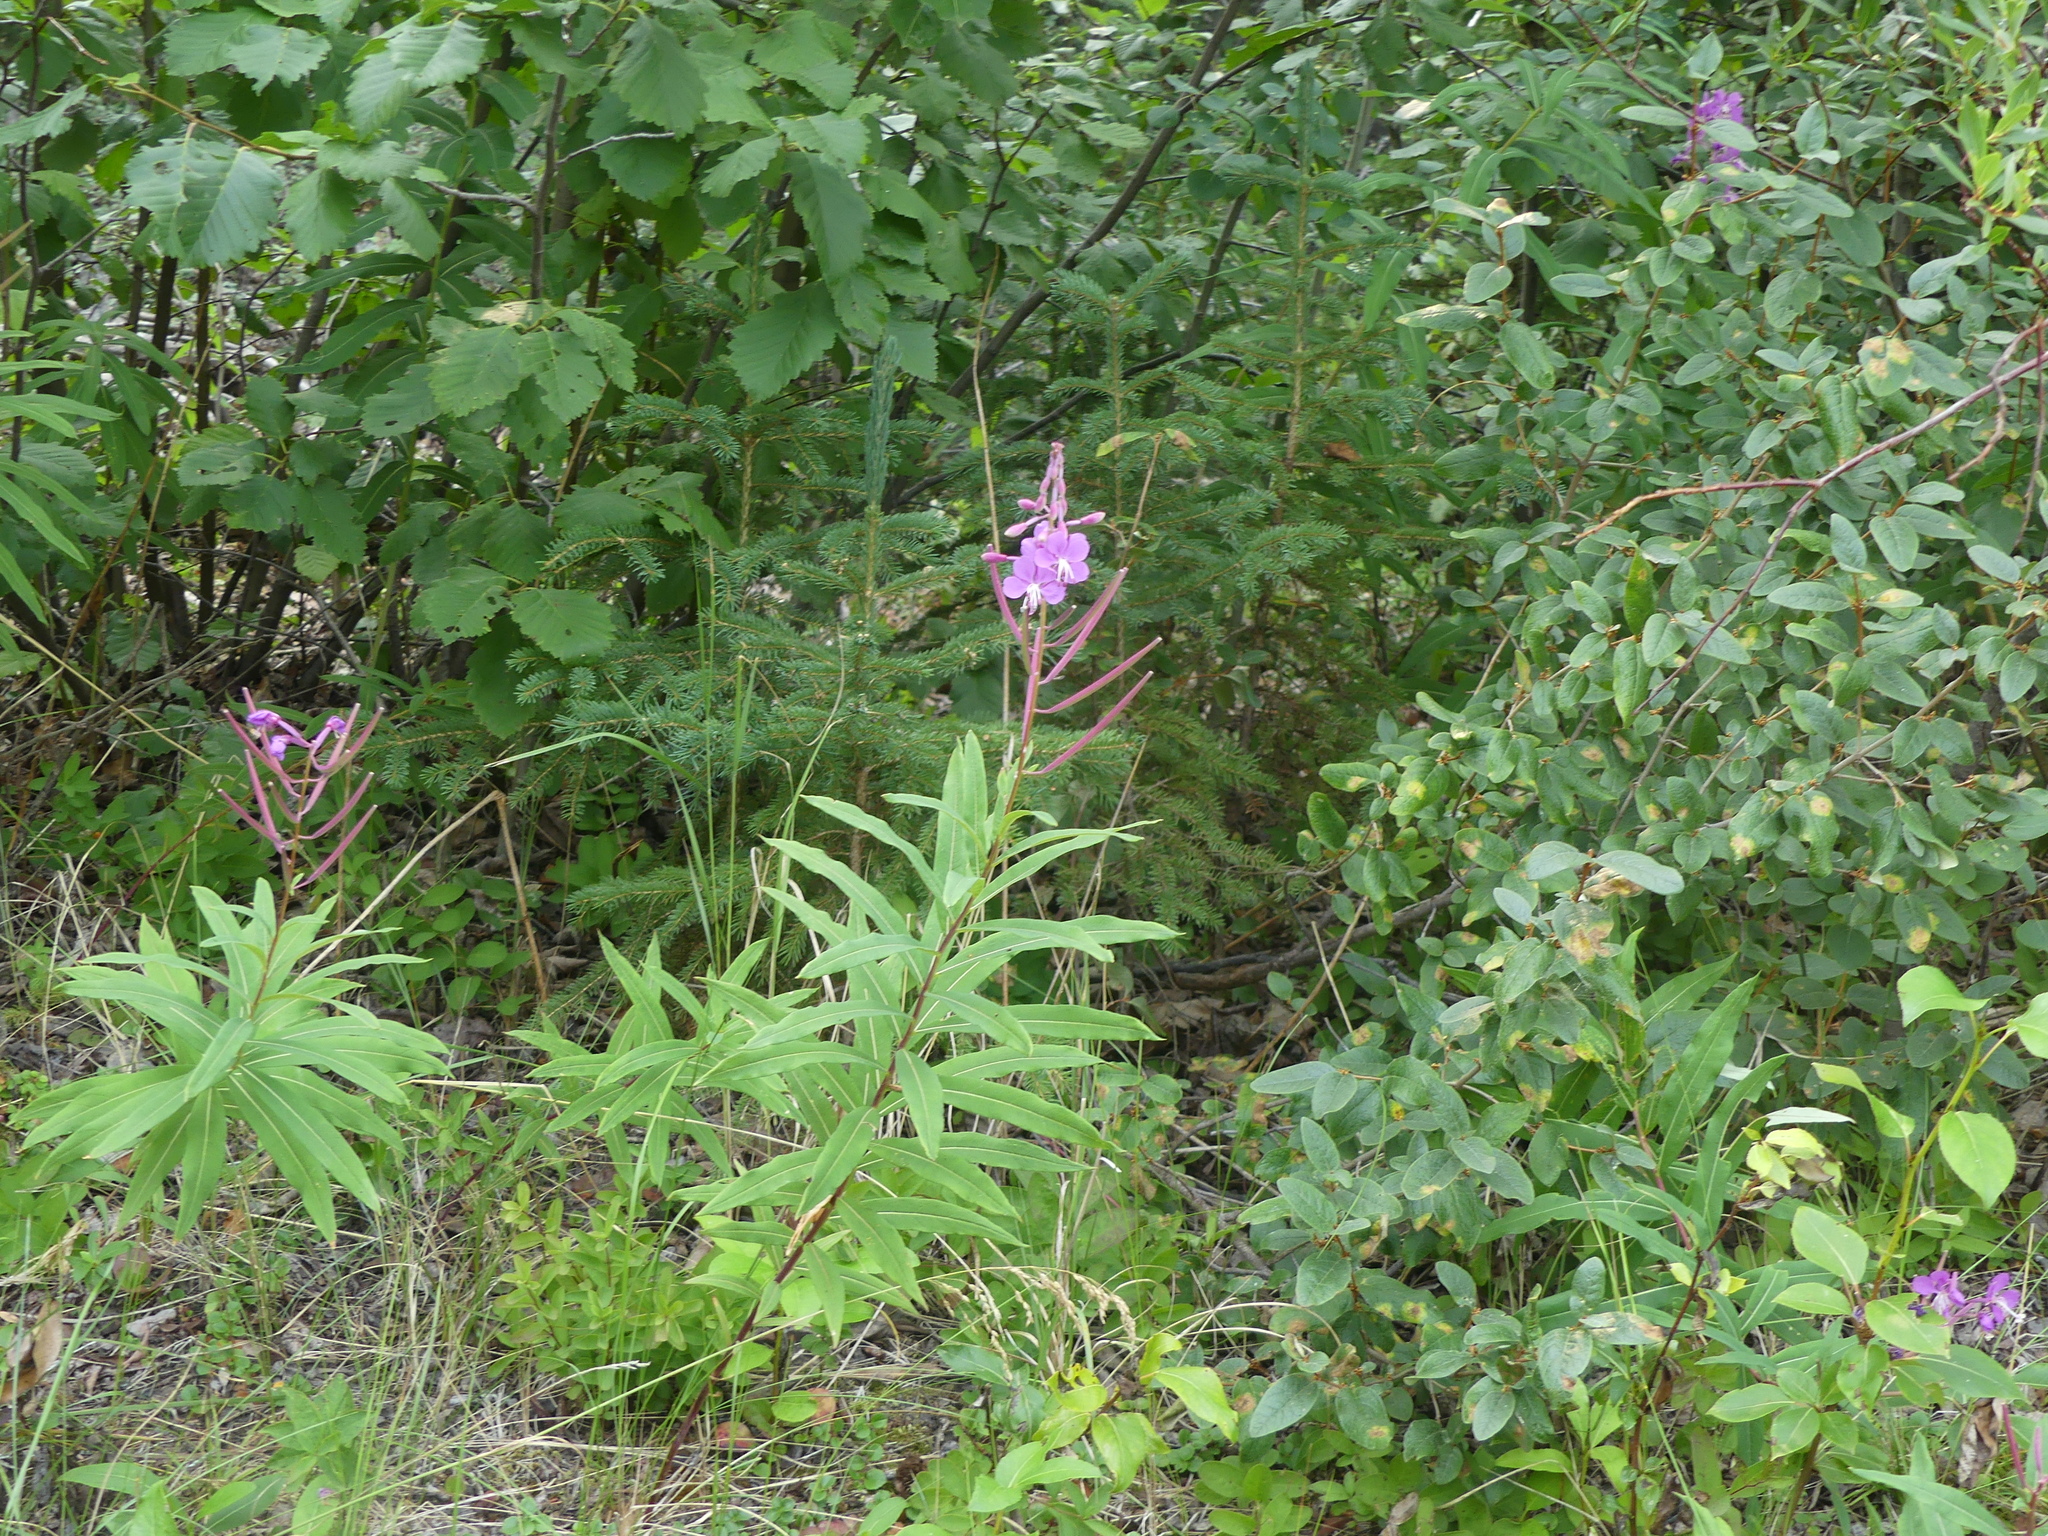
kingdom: Plantae
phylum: Tracheophyta
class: Magnoliopsida
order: Myrtales
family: Onagraceae
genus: Chamaenerion
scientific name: Chamaenerion angustifolium
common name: Fireweed
